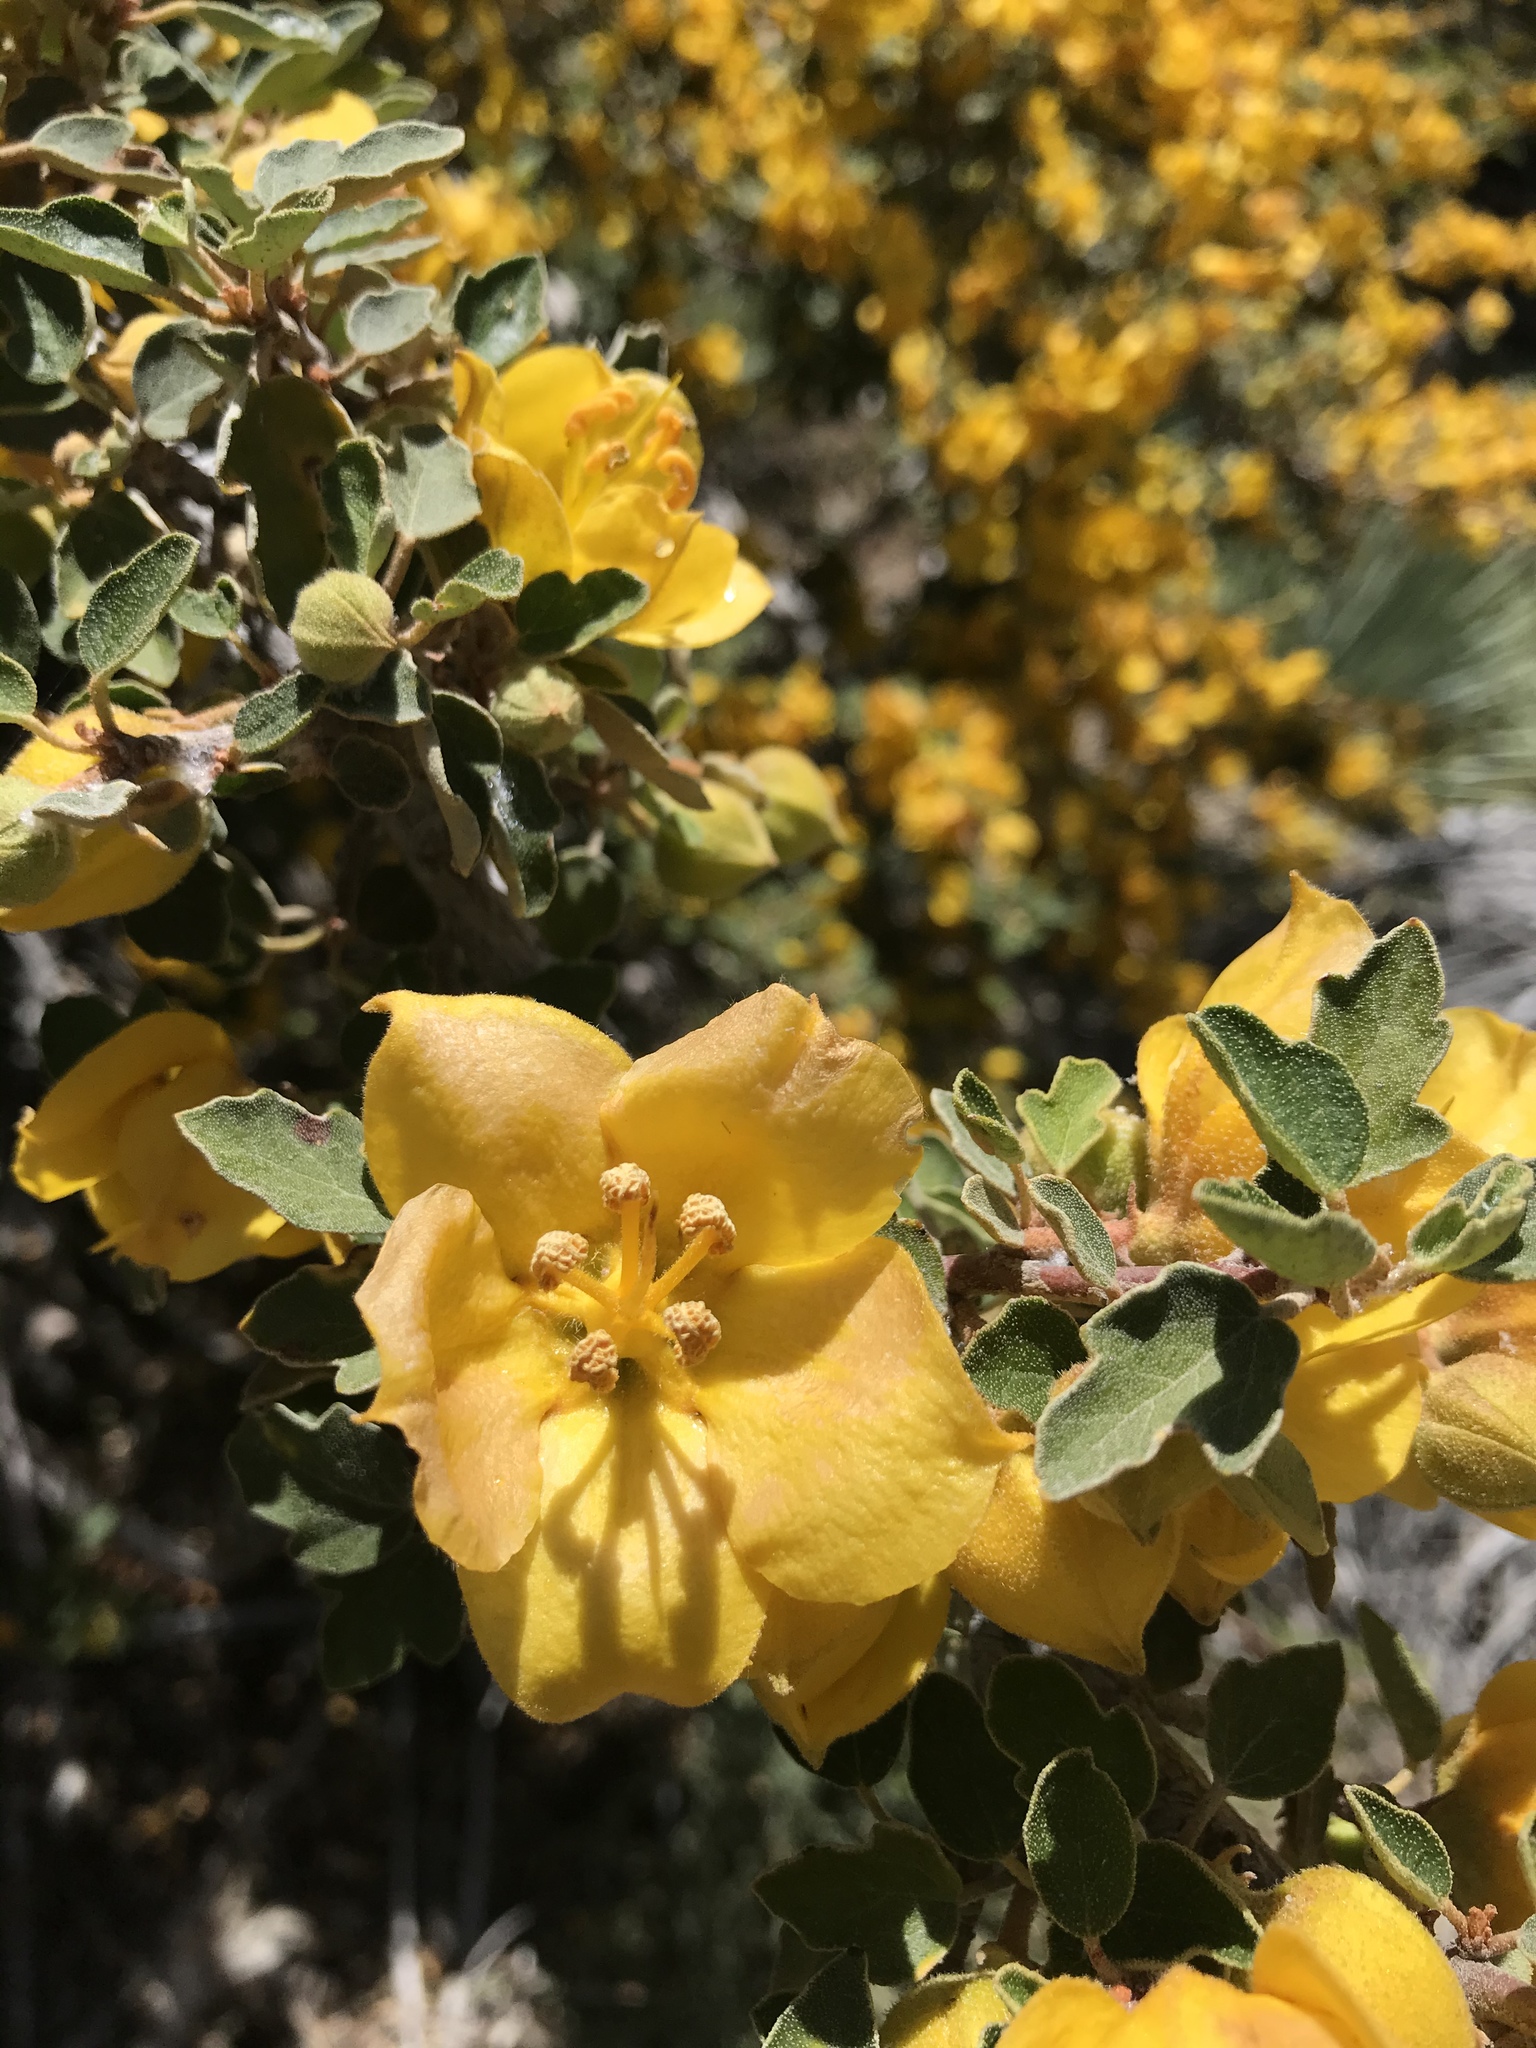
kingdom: Plantae
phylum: Tracheophyta
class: Magnoliopsida
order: Malvales
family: Malvaceae
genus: Fremontodendron
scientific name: Fremontodendron californicum
